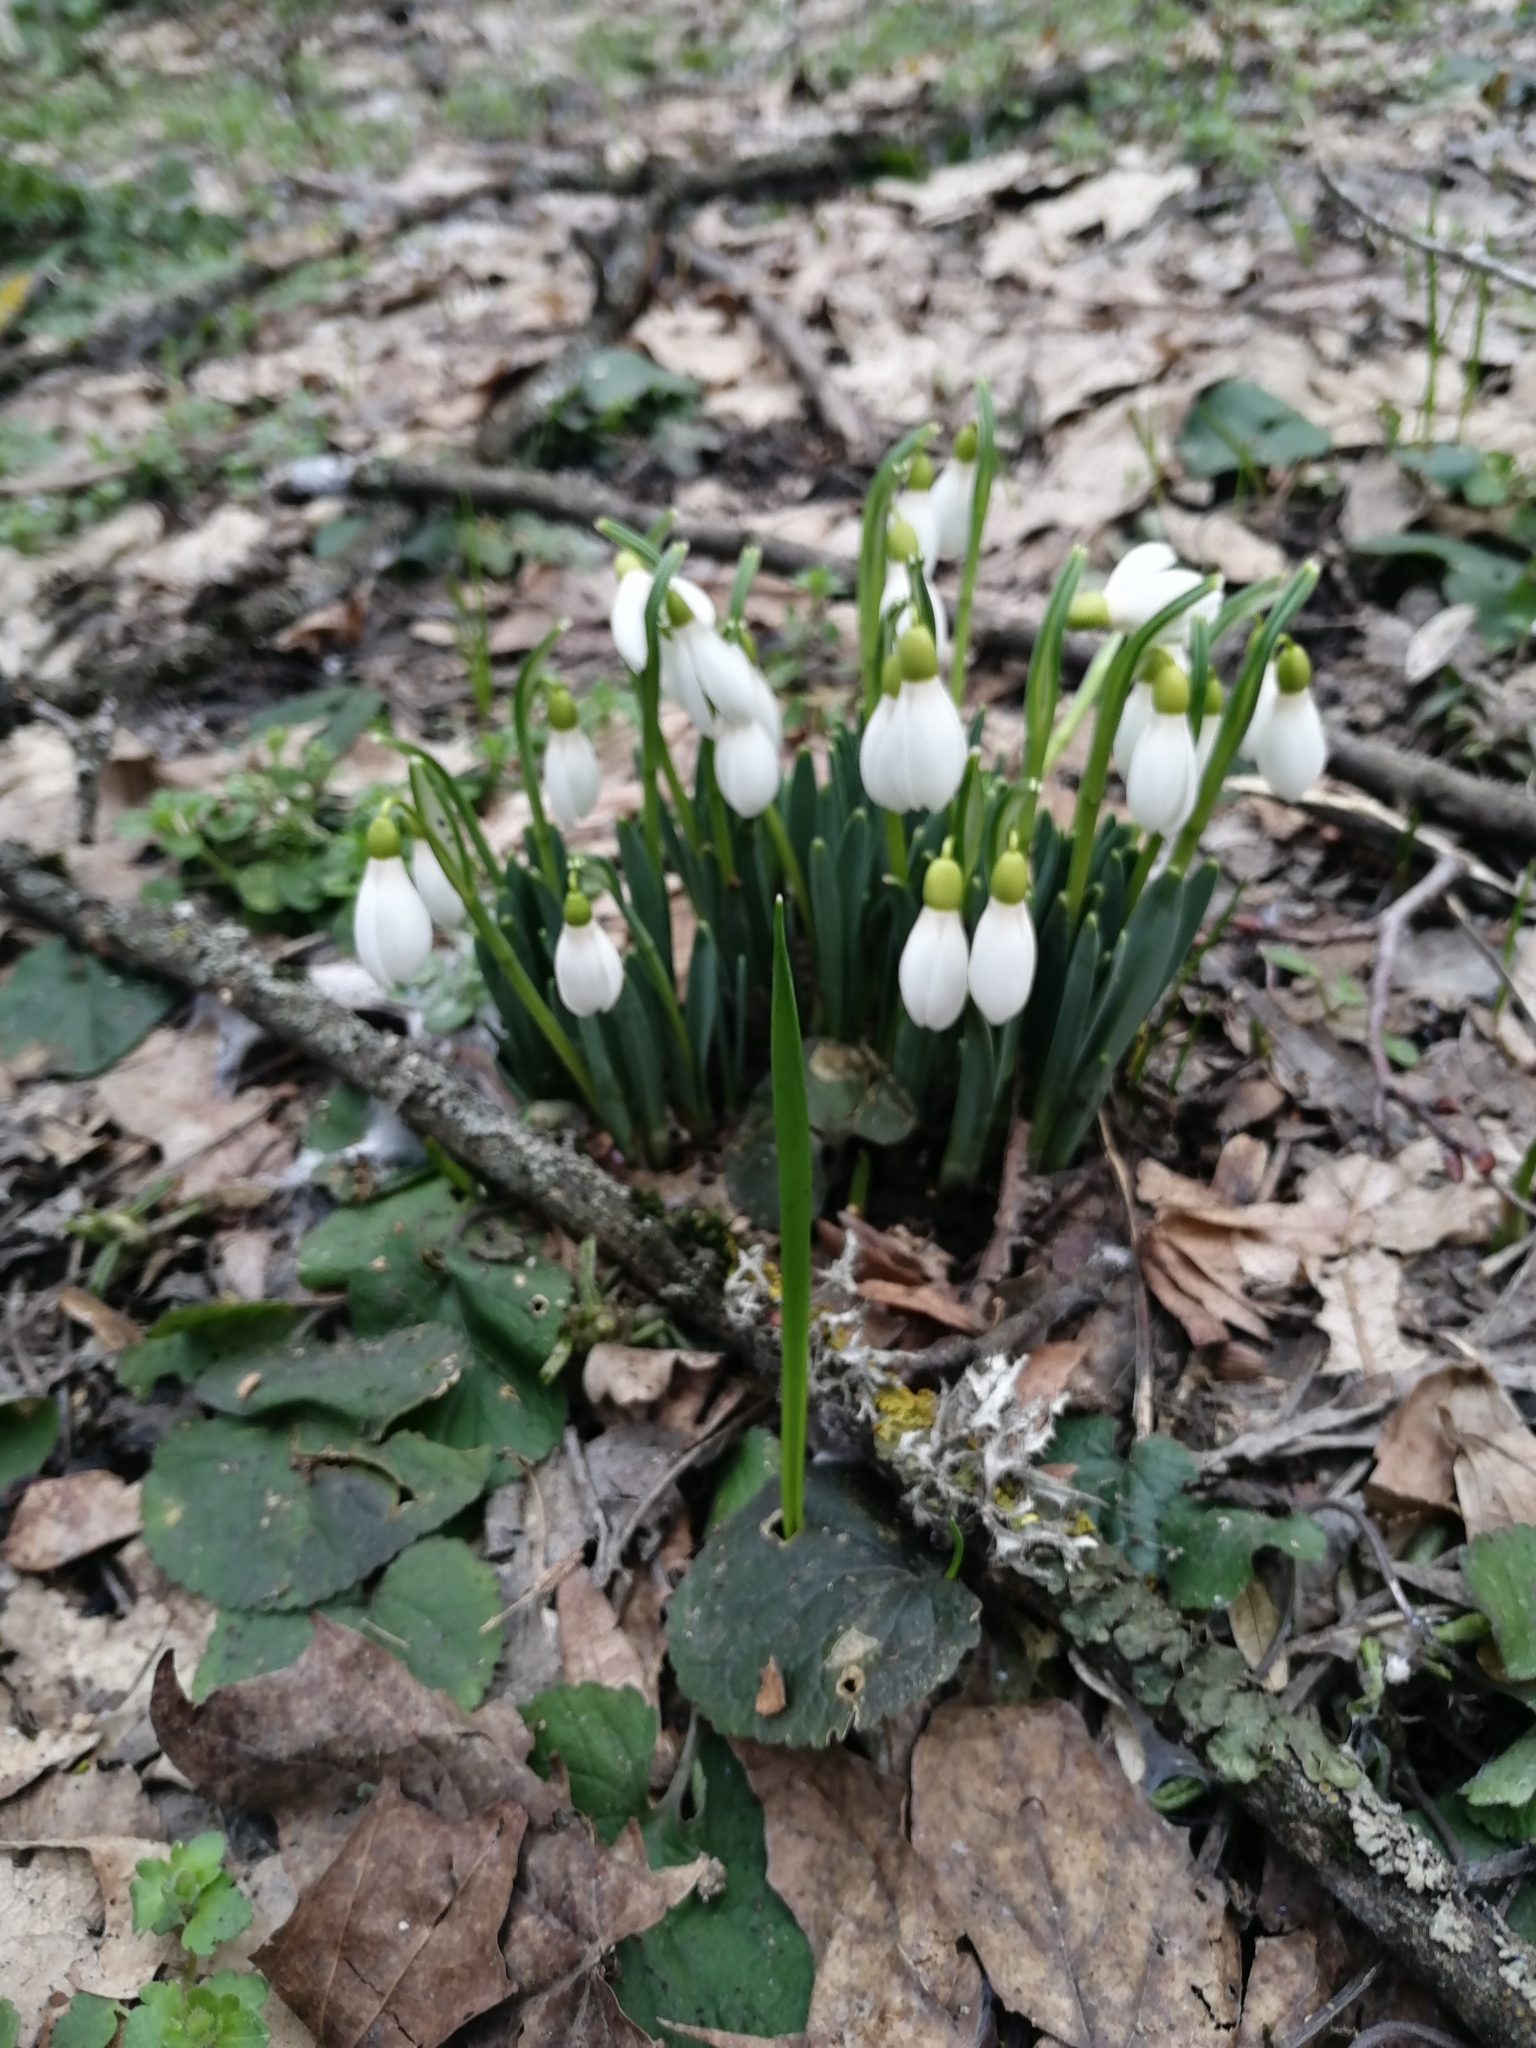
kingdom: Plantae
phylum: Tracheophyta
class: Liliopsida
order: Asparagales
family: Amaryllidaceae
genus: Galanthus
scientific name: Galanthus alpinus
